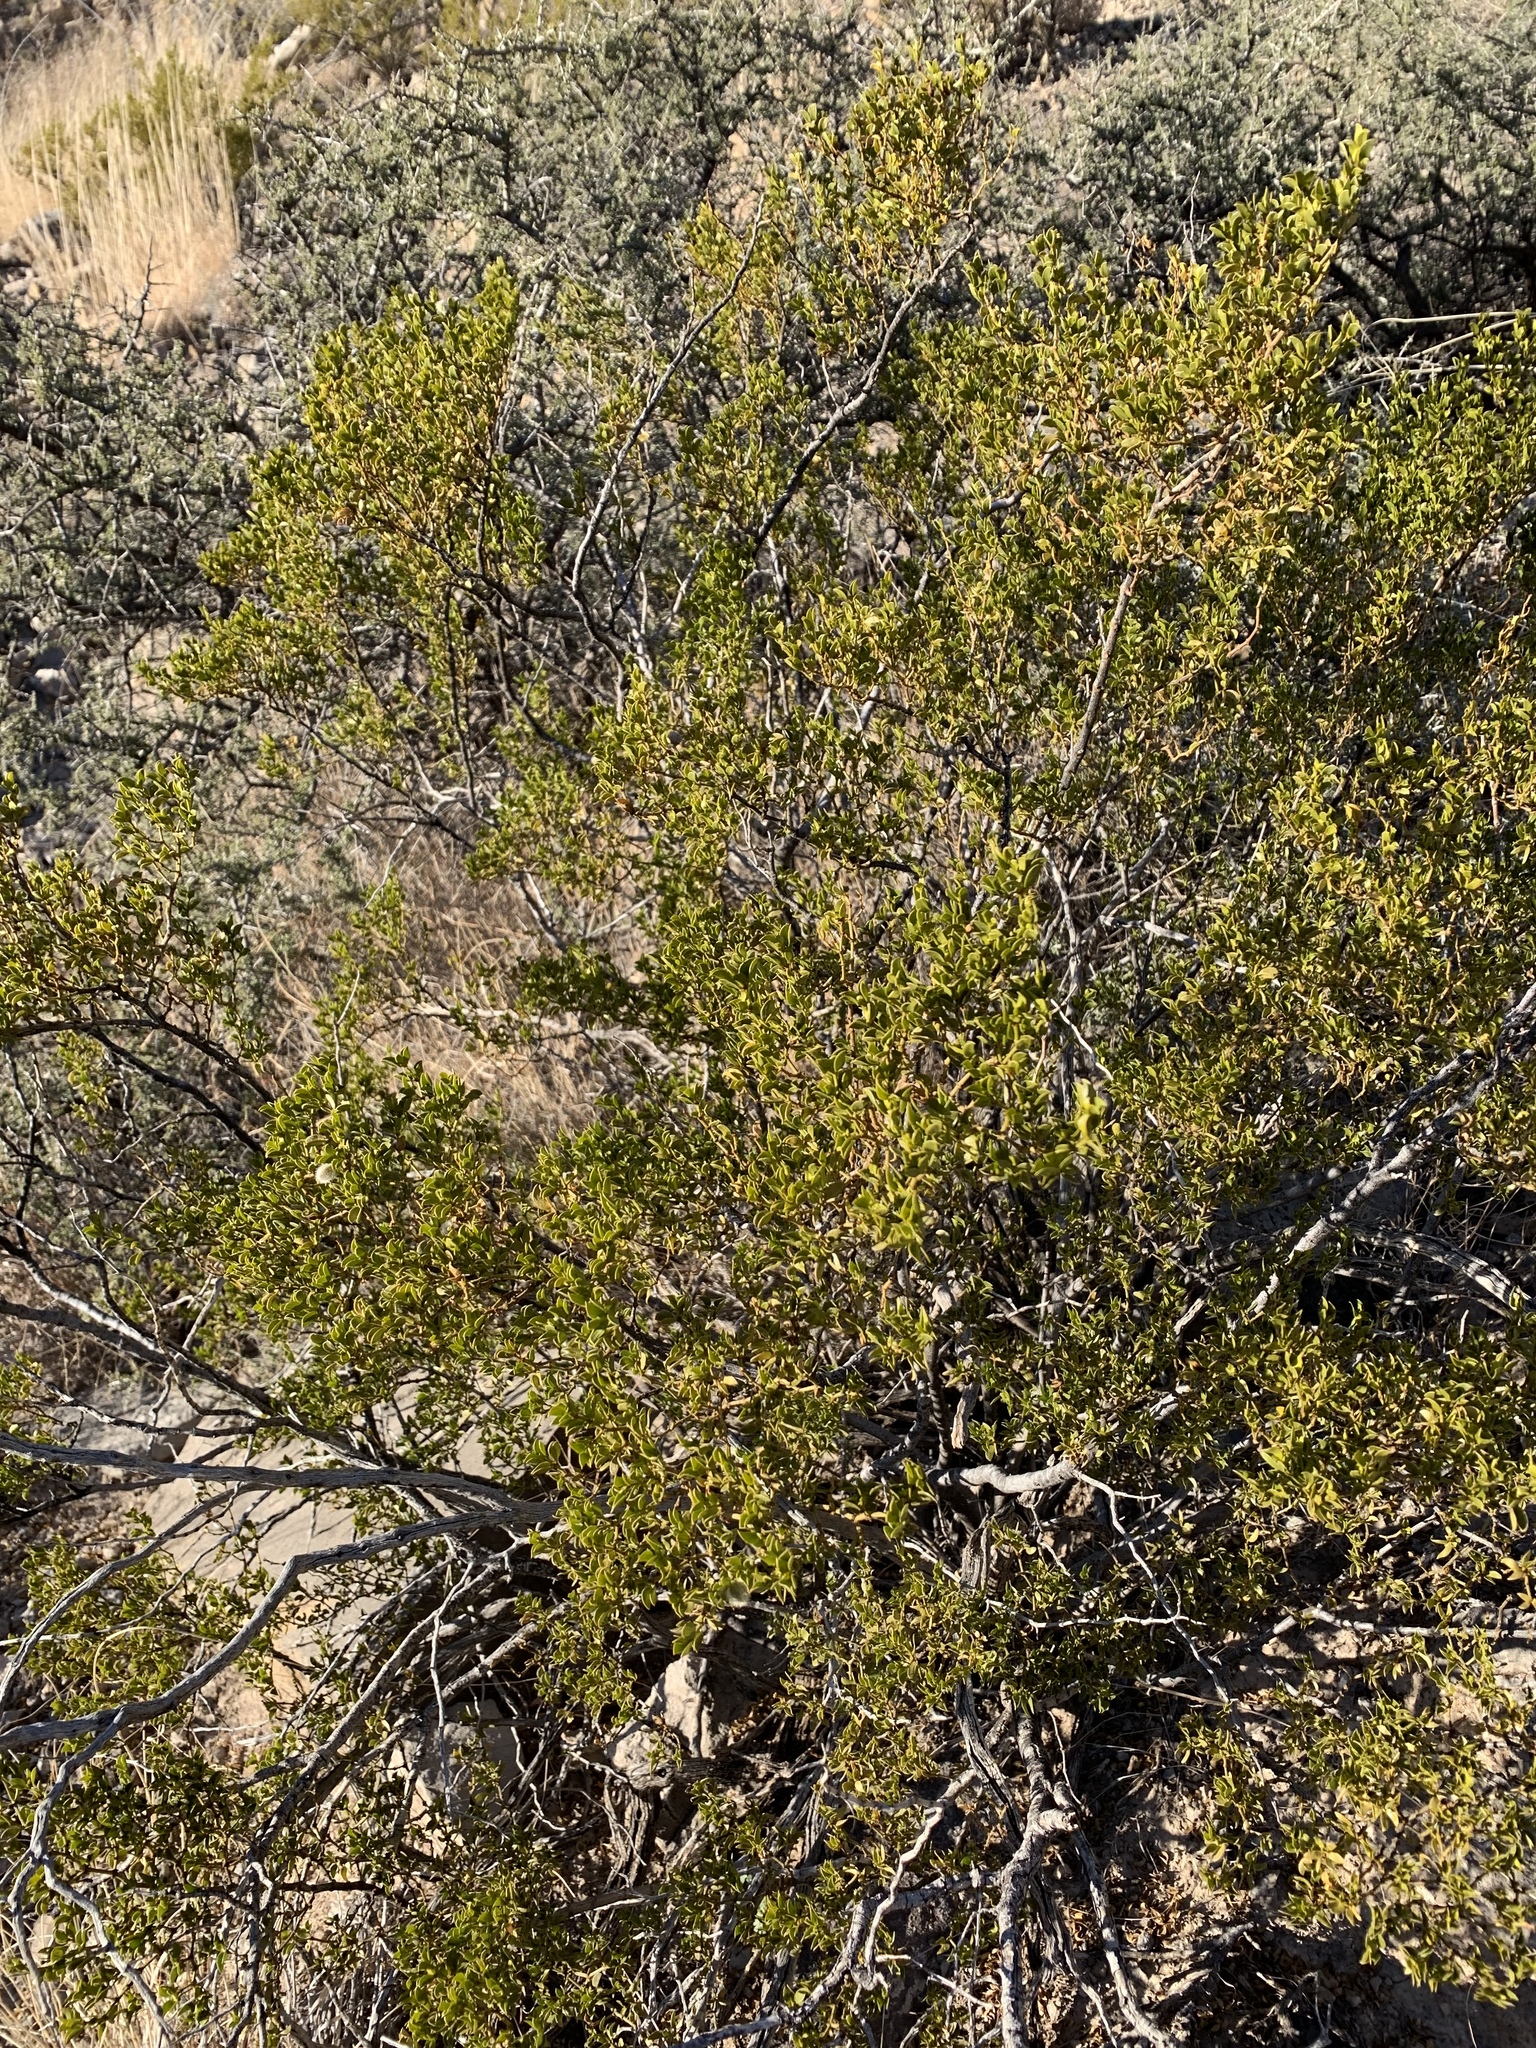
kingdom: Plantae
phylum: Tracheophyta
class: Magnoliopsida
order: Zygophyllales
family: Zygophyllaceae
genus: Larrea
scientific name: Larrea tridentata
